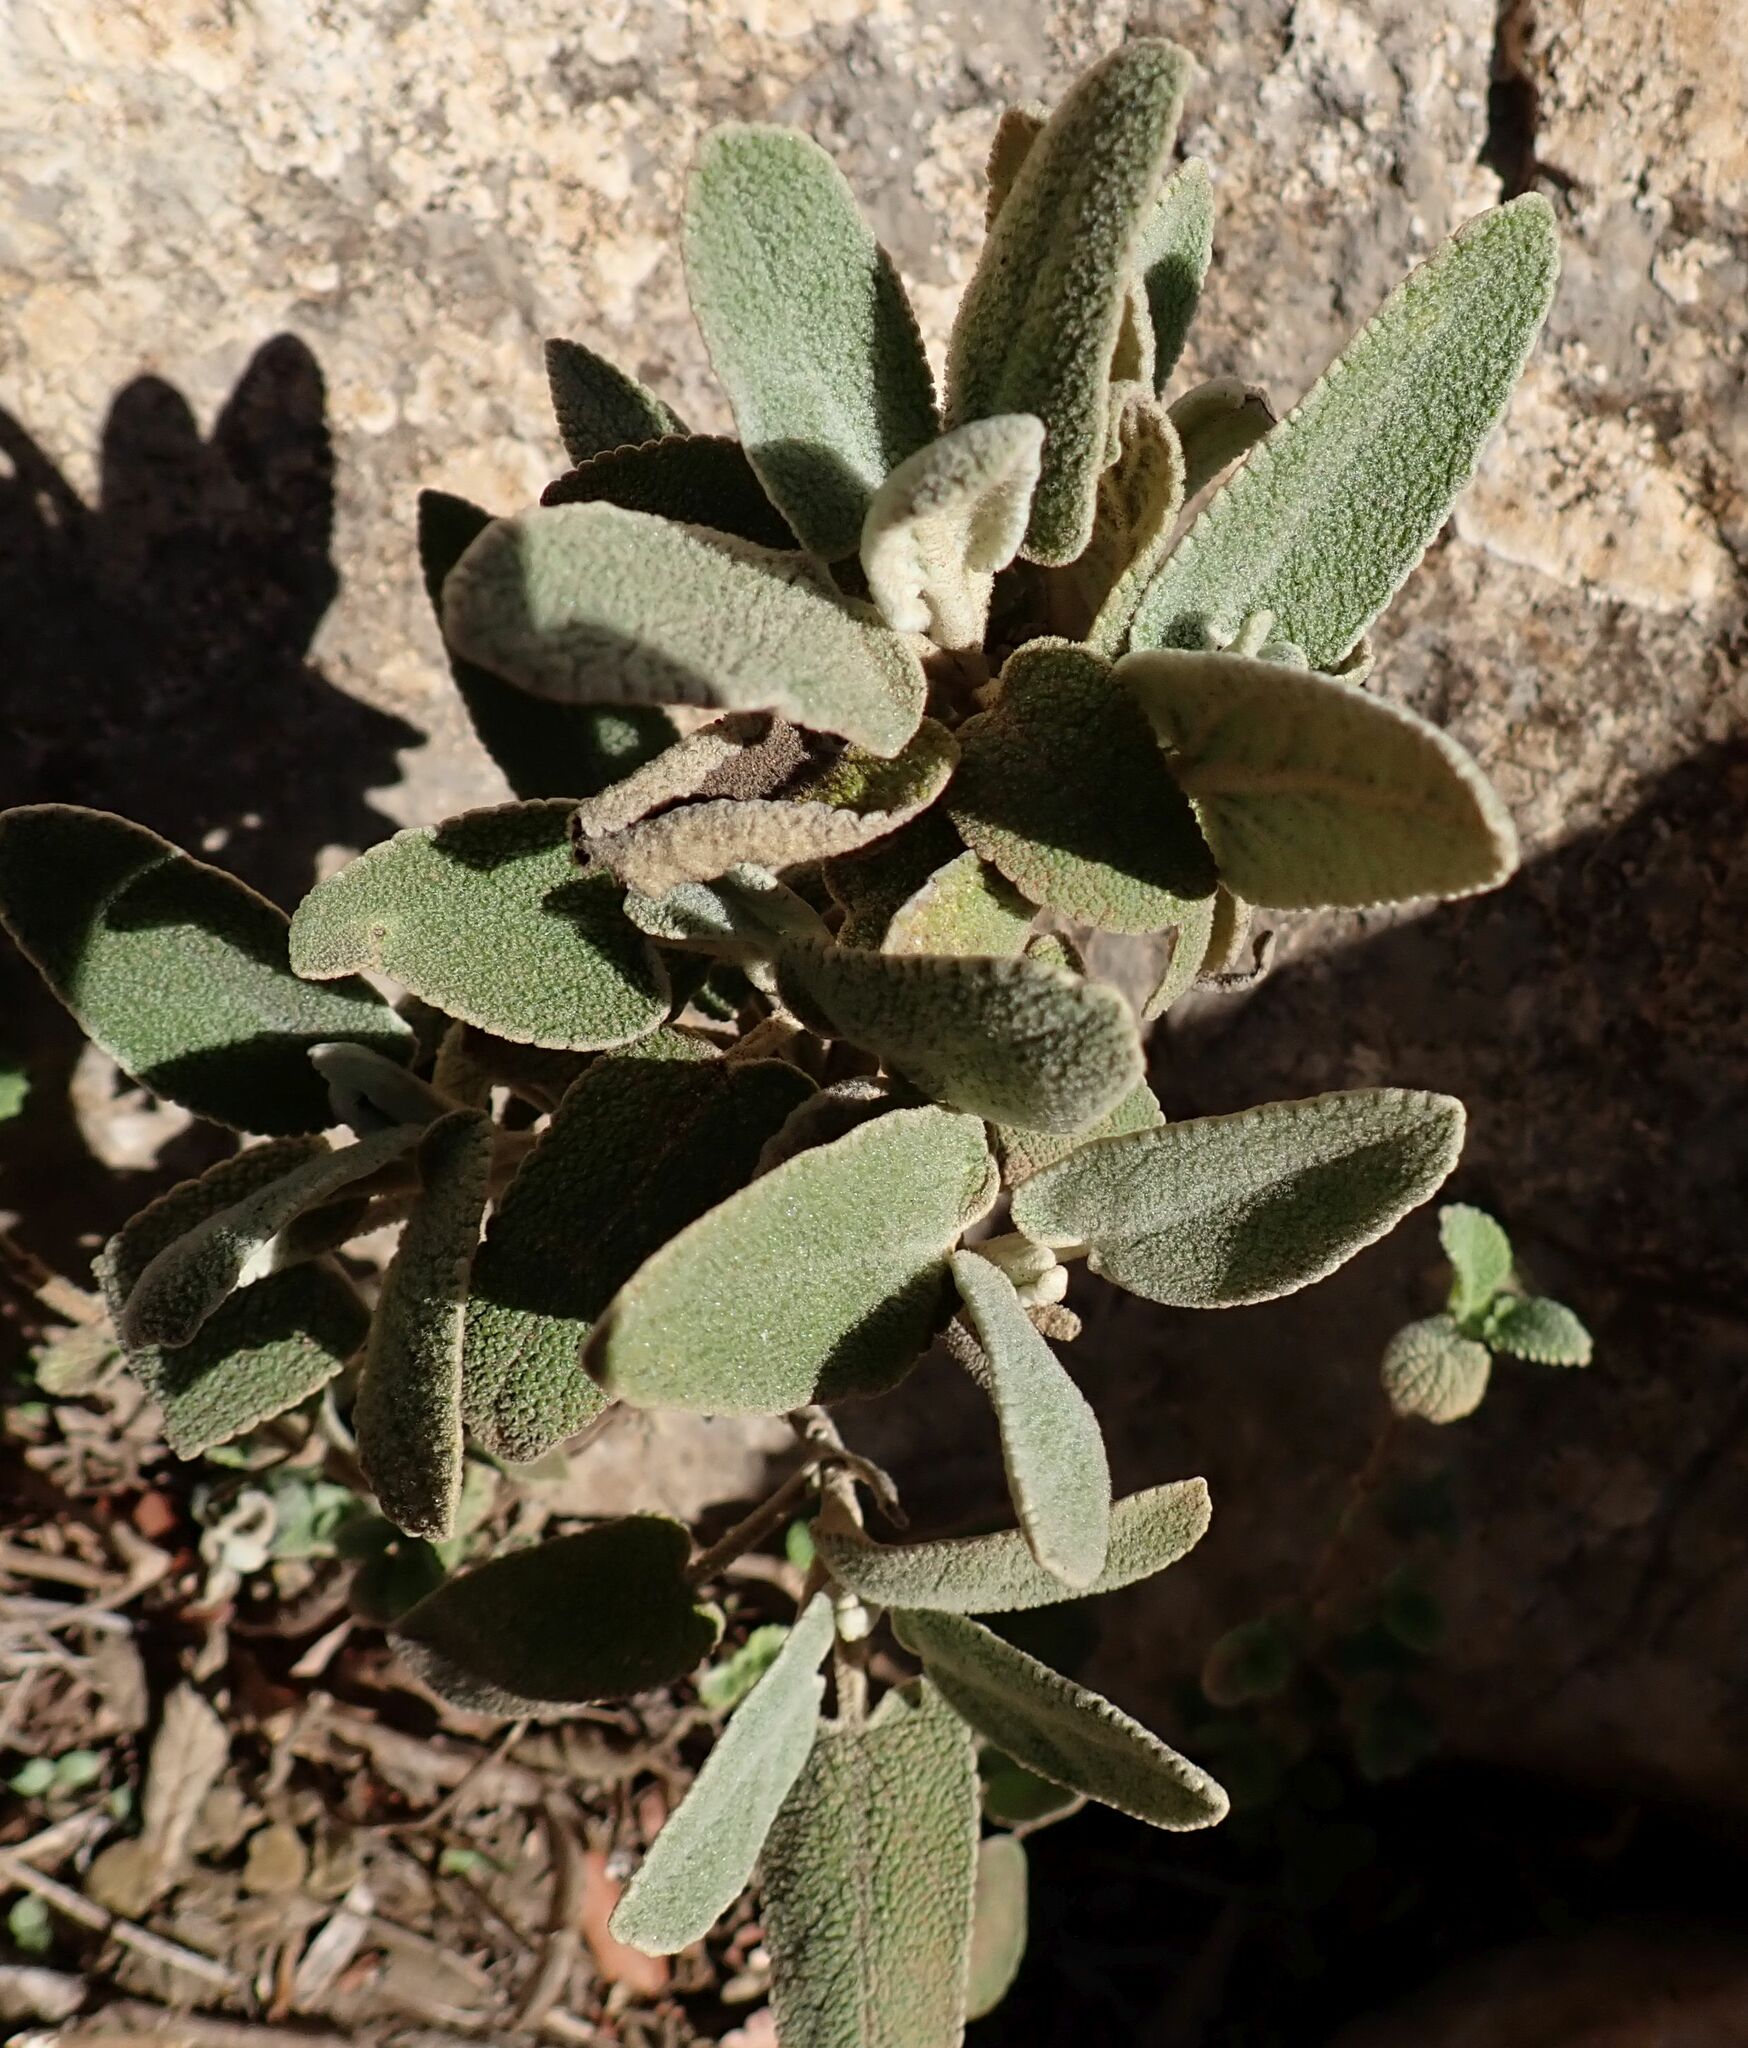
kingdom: Plantae
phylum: Tracheophyta
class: Magnoliopsida
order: Lamiales
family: Lamiaceae
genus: Phlomis
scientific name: Phlomis purpurea
